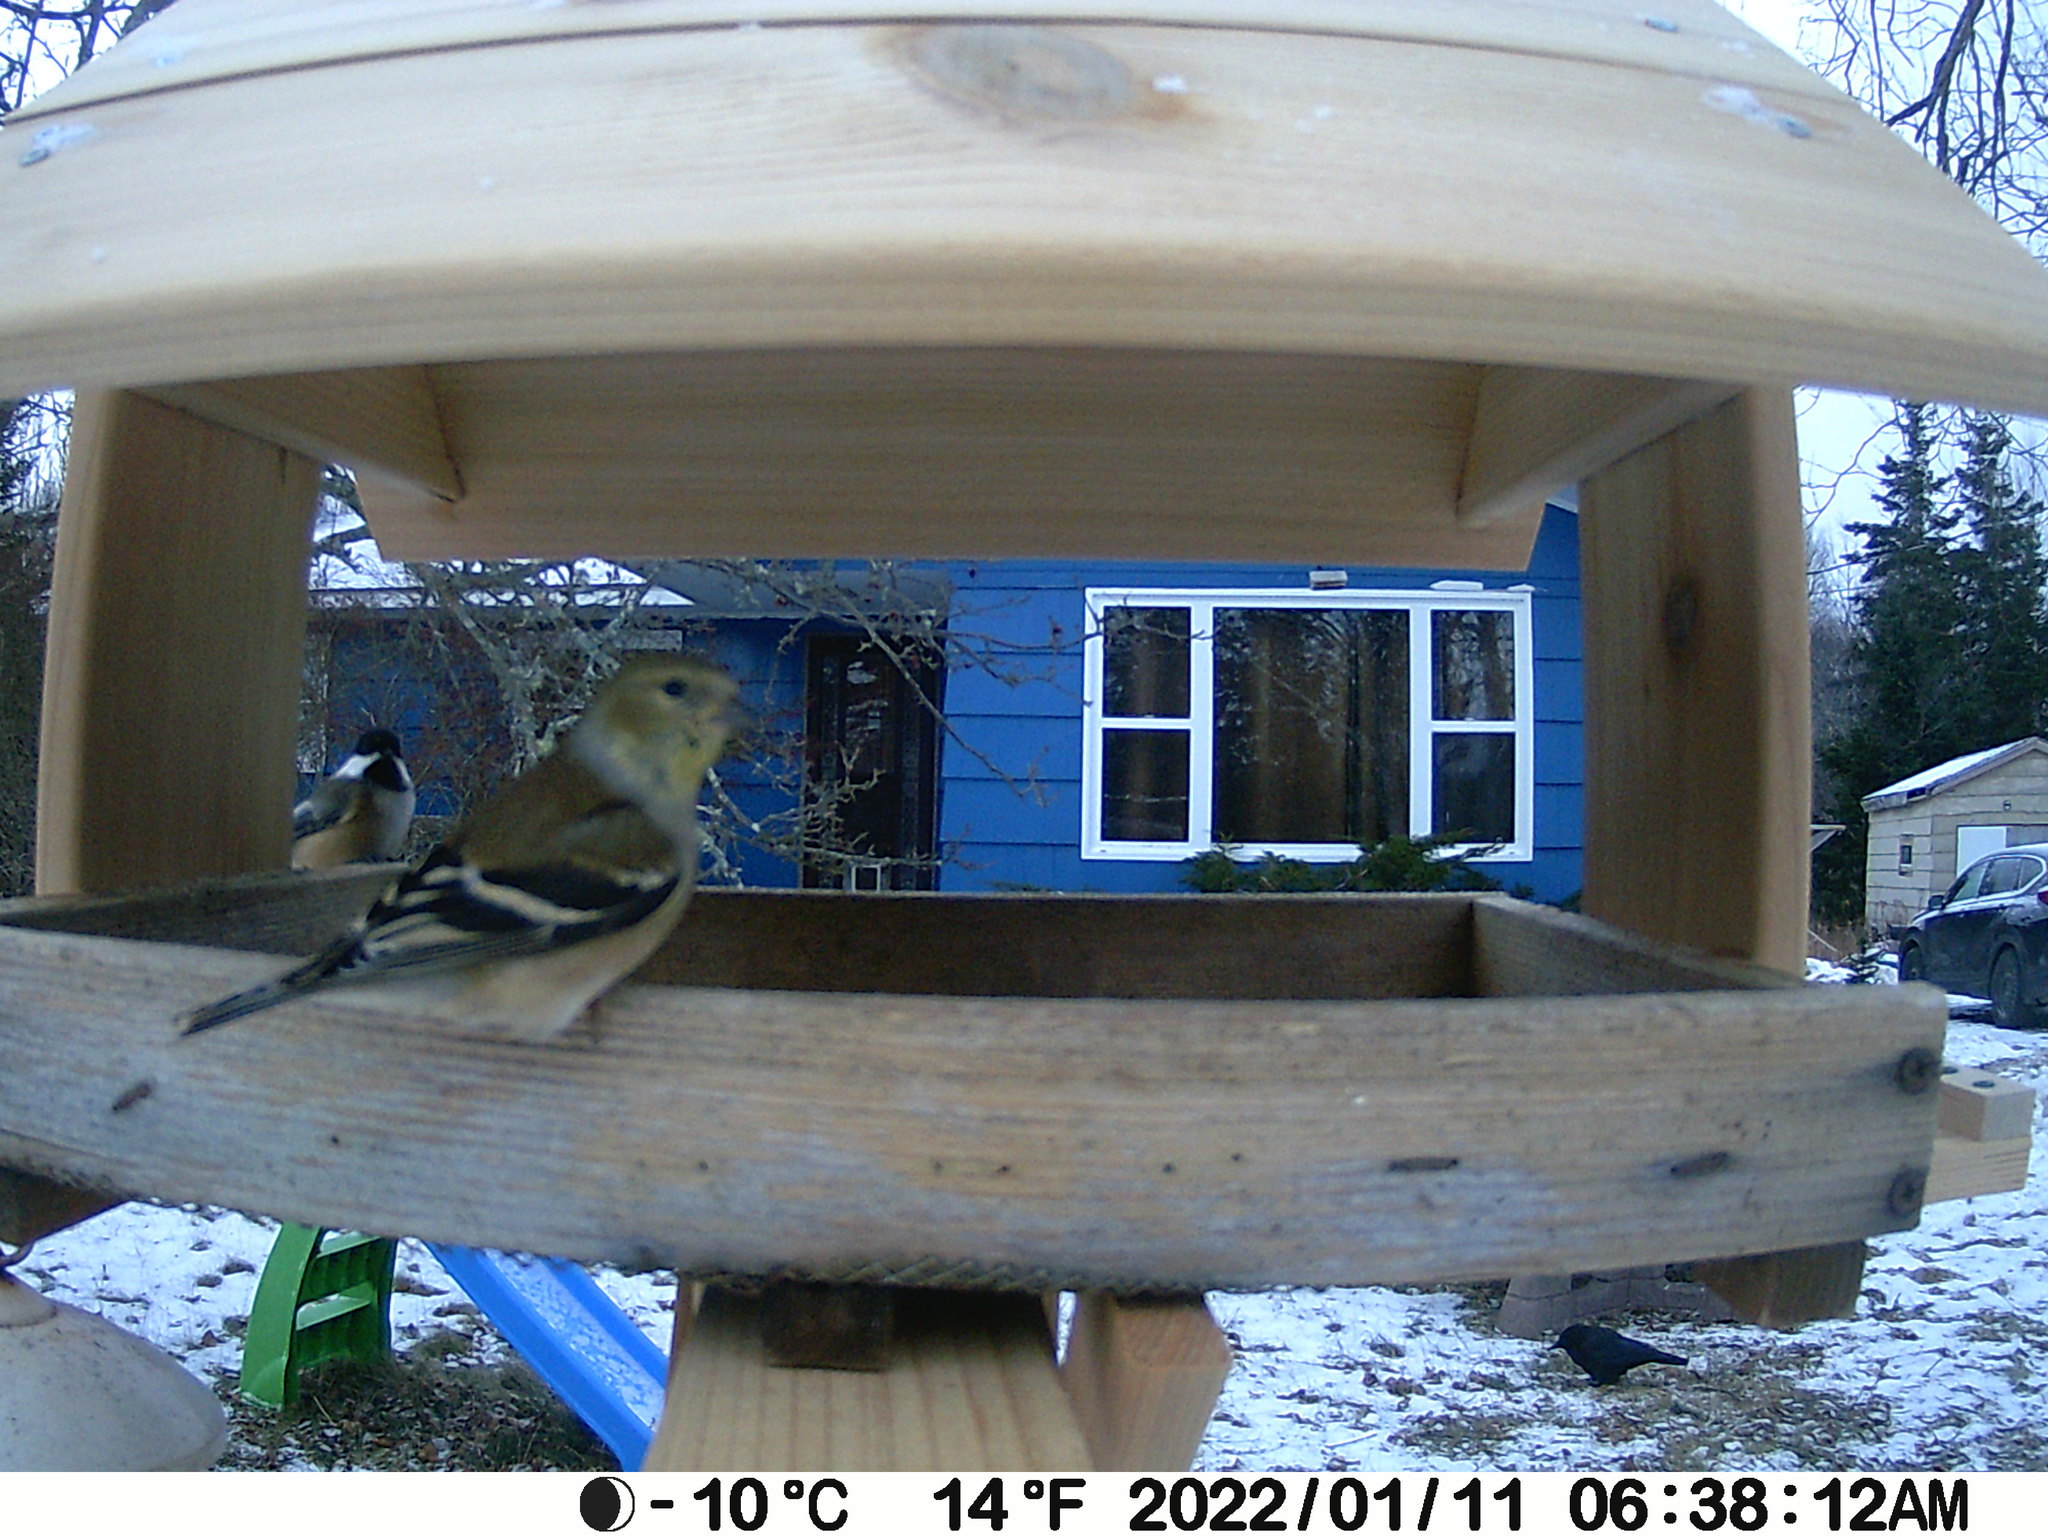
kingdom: Animalia
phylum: Chordata
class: Aves
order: Passeriformes
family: Fringillidae
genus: Spinus
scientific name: Spinus tristis
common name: American goldfinch
